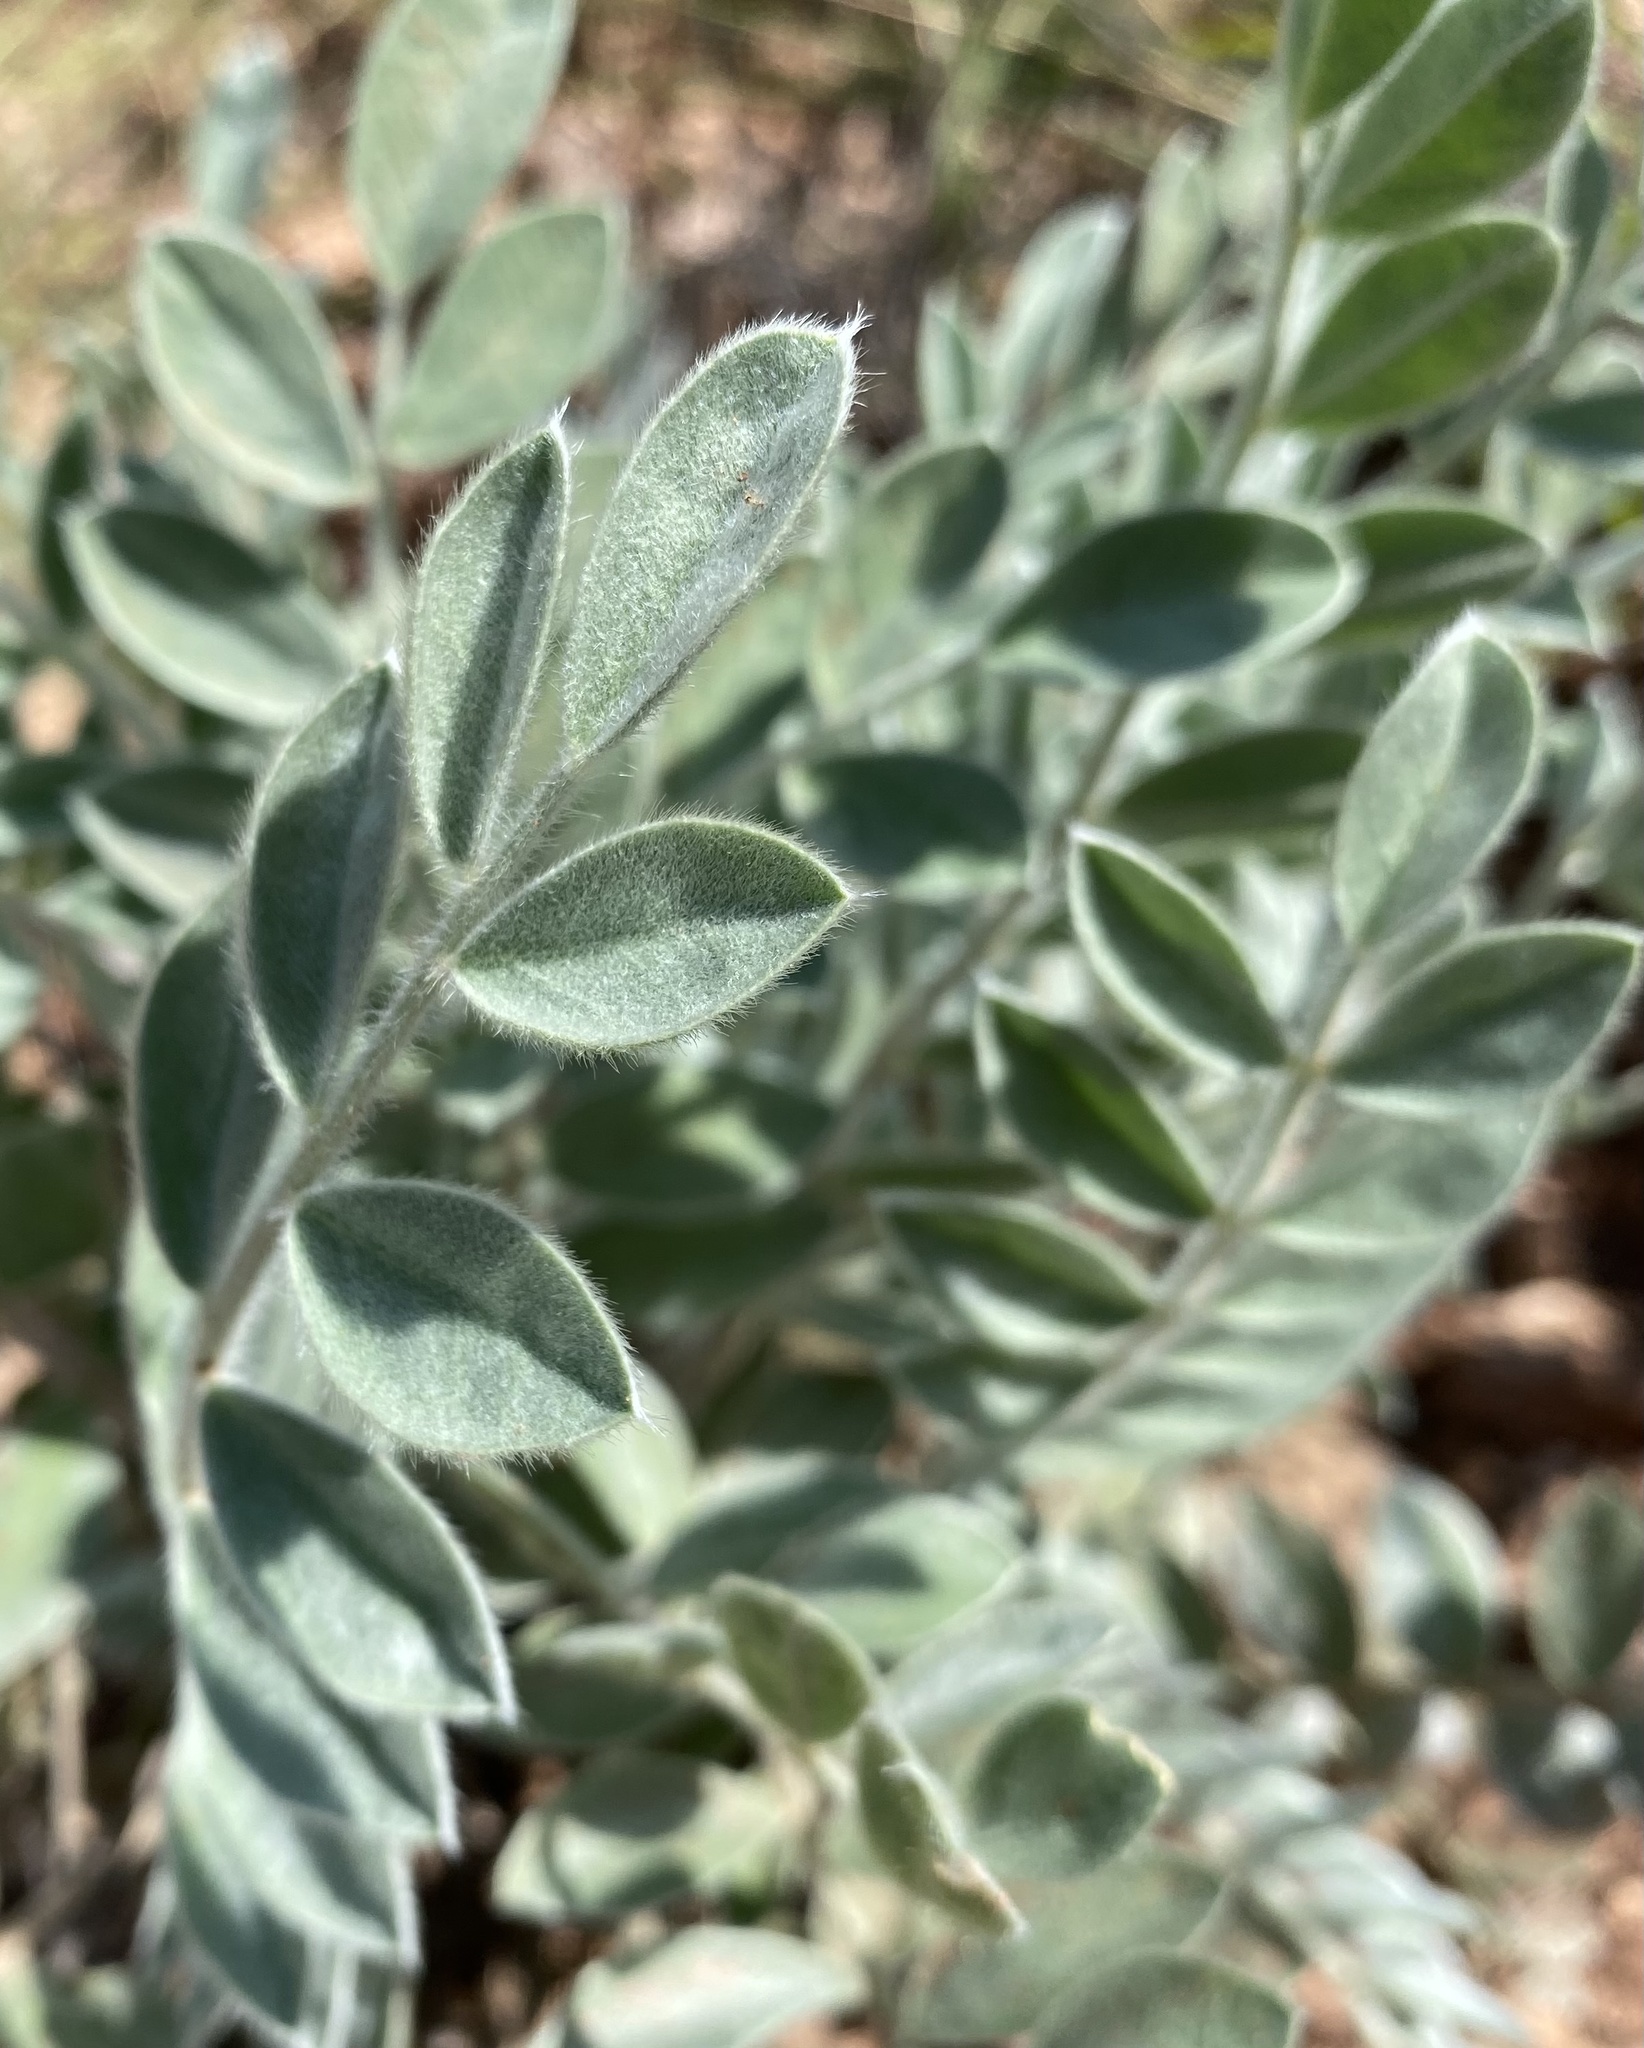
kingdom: Plantae
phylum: Tracheophyta
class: Magnoliopsida
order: Fabales
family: Fabaceae
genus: Astragalus
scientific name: Astragalus mollissimus
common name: Woolly locoweed
